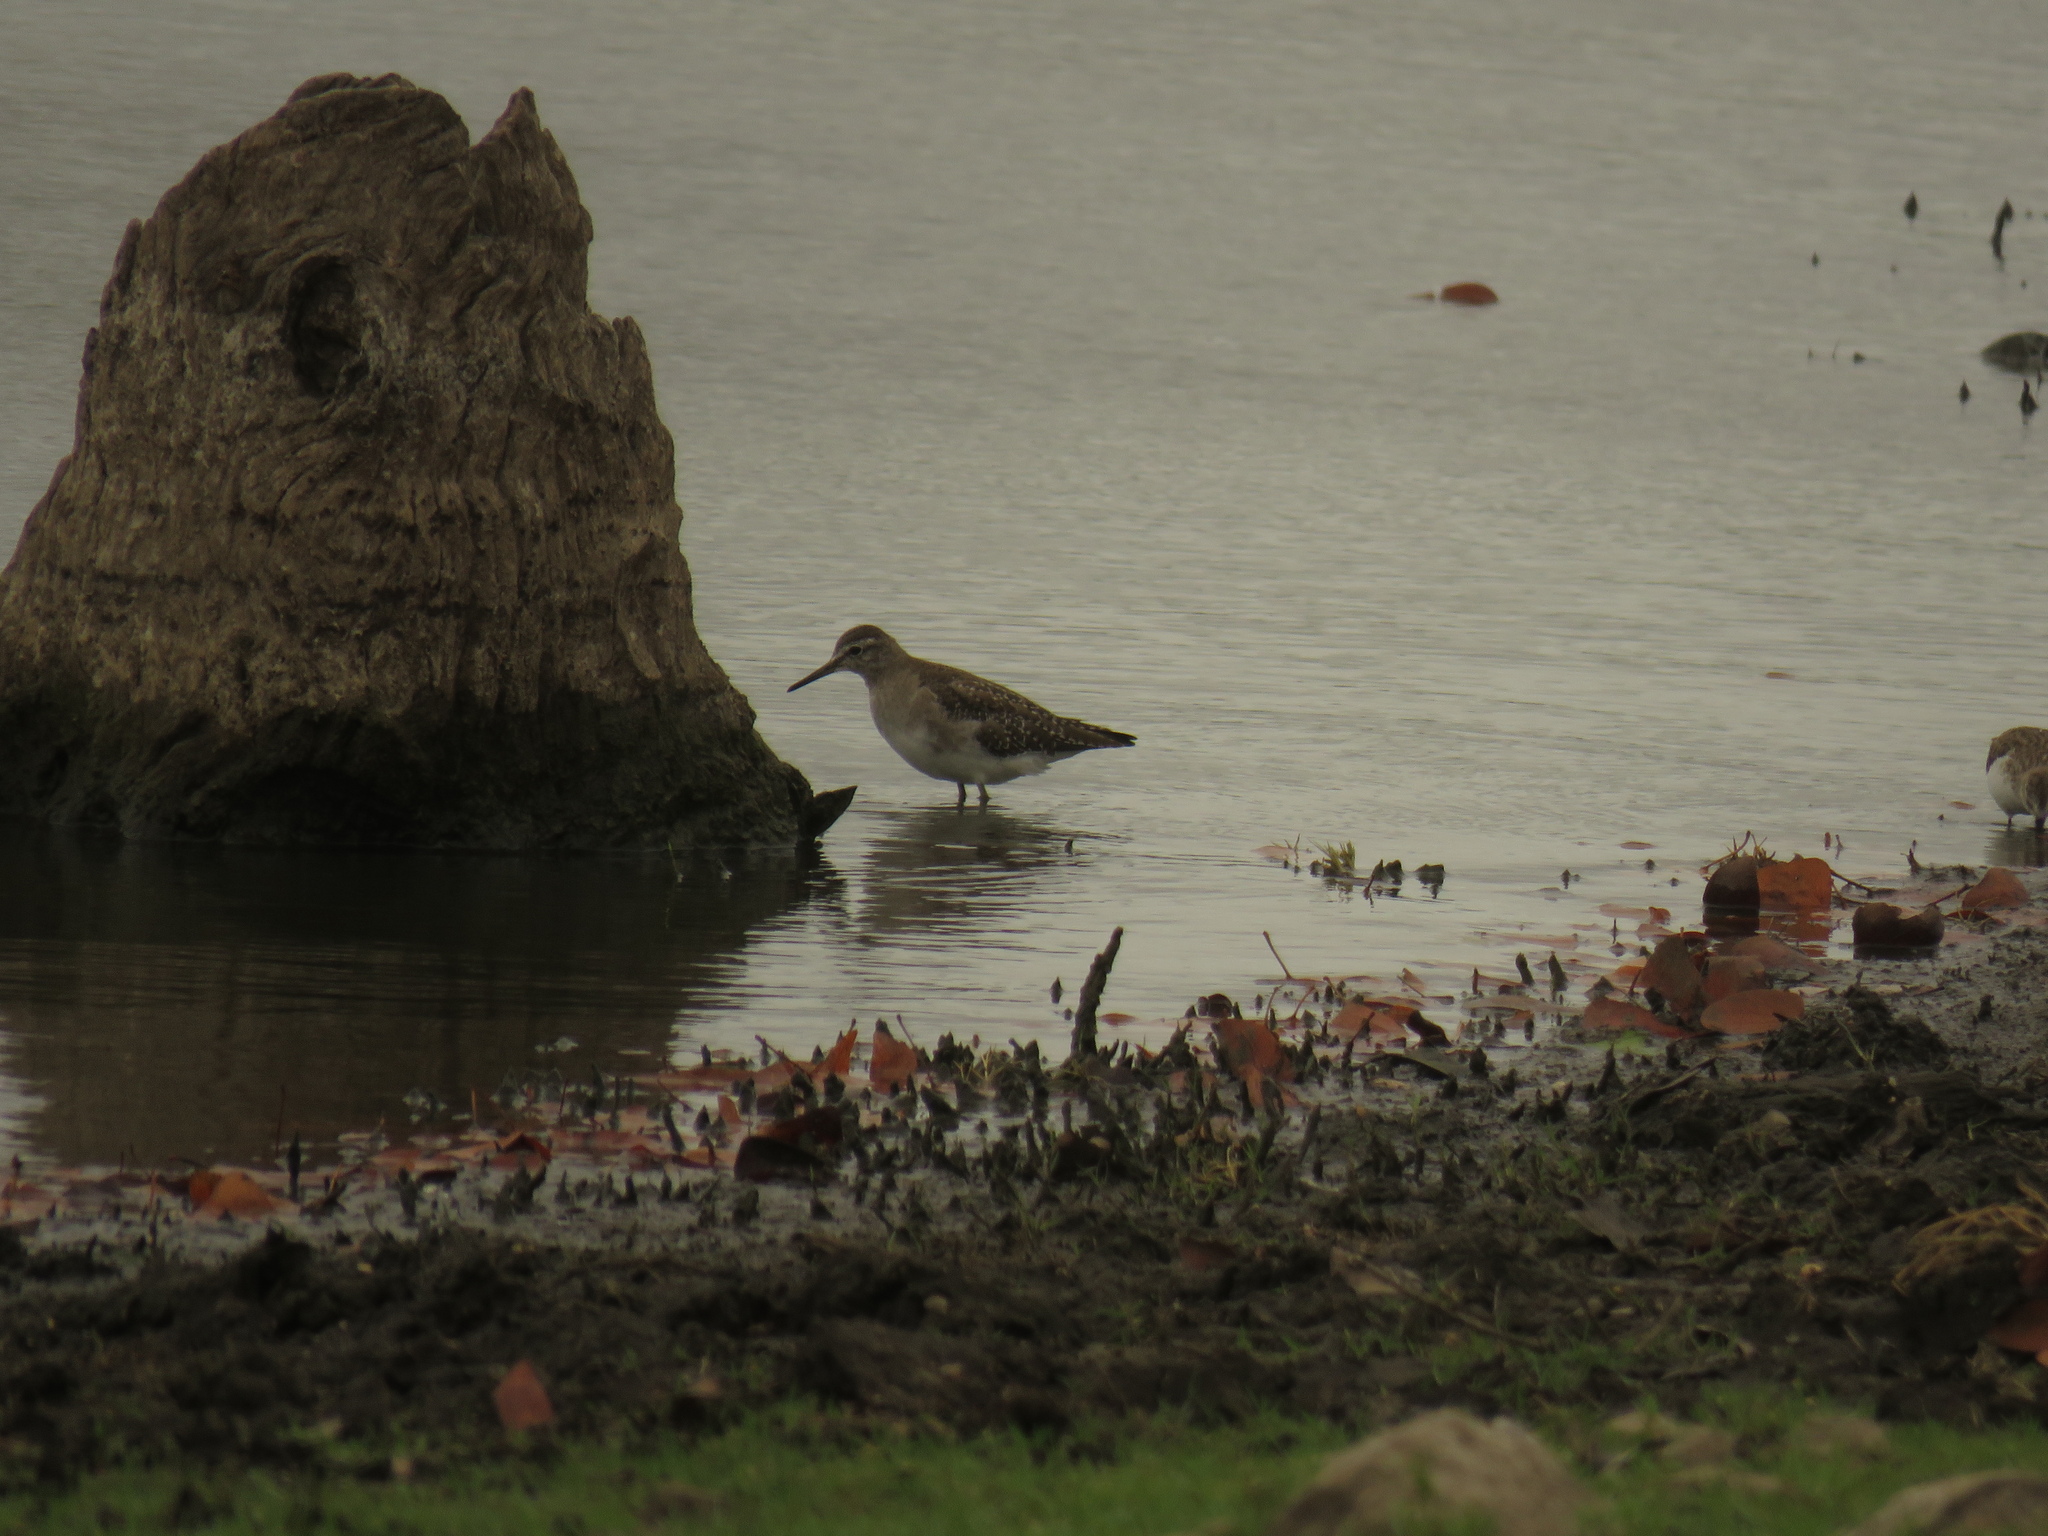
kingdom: Animalia
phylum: Chordata
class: Aves
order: Charadriiformes
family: Scolopacidae
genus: Tringa
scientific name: Tringa glareola
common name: Wood sandpiper
